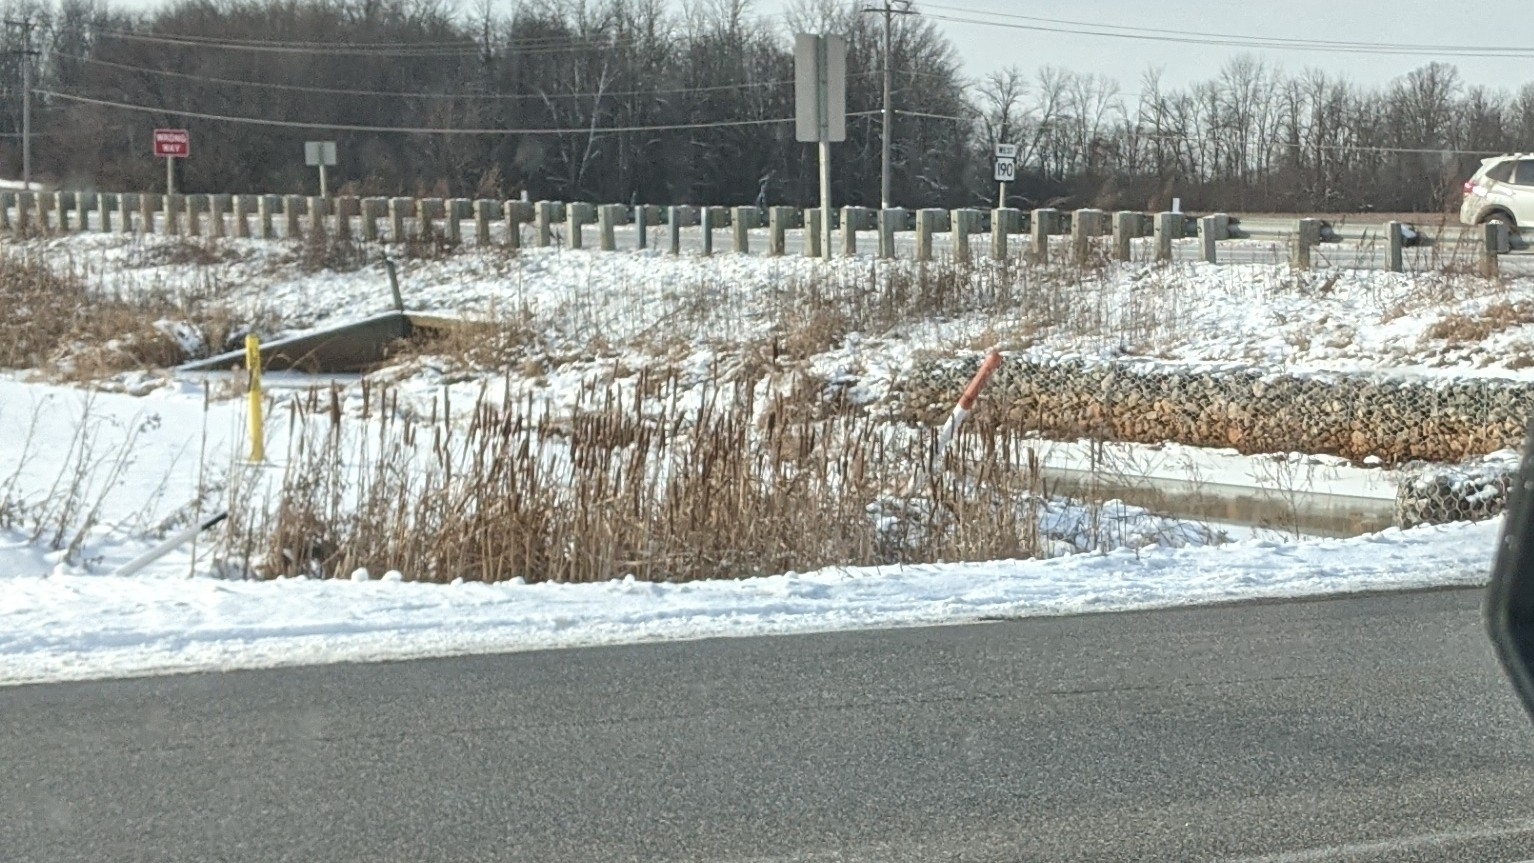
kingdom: Plantae
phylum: Tracheophyta
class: Liliopsida
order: Poales
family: Typhaceae
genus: Typha
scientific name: Typha
